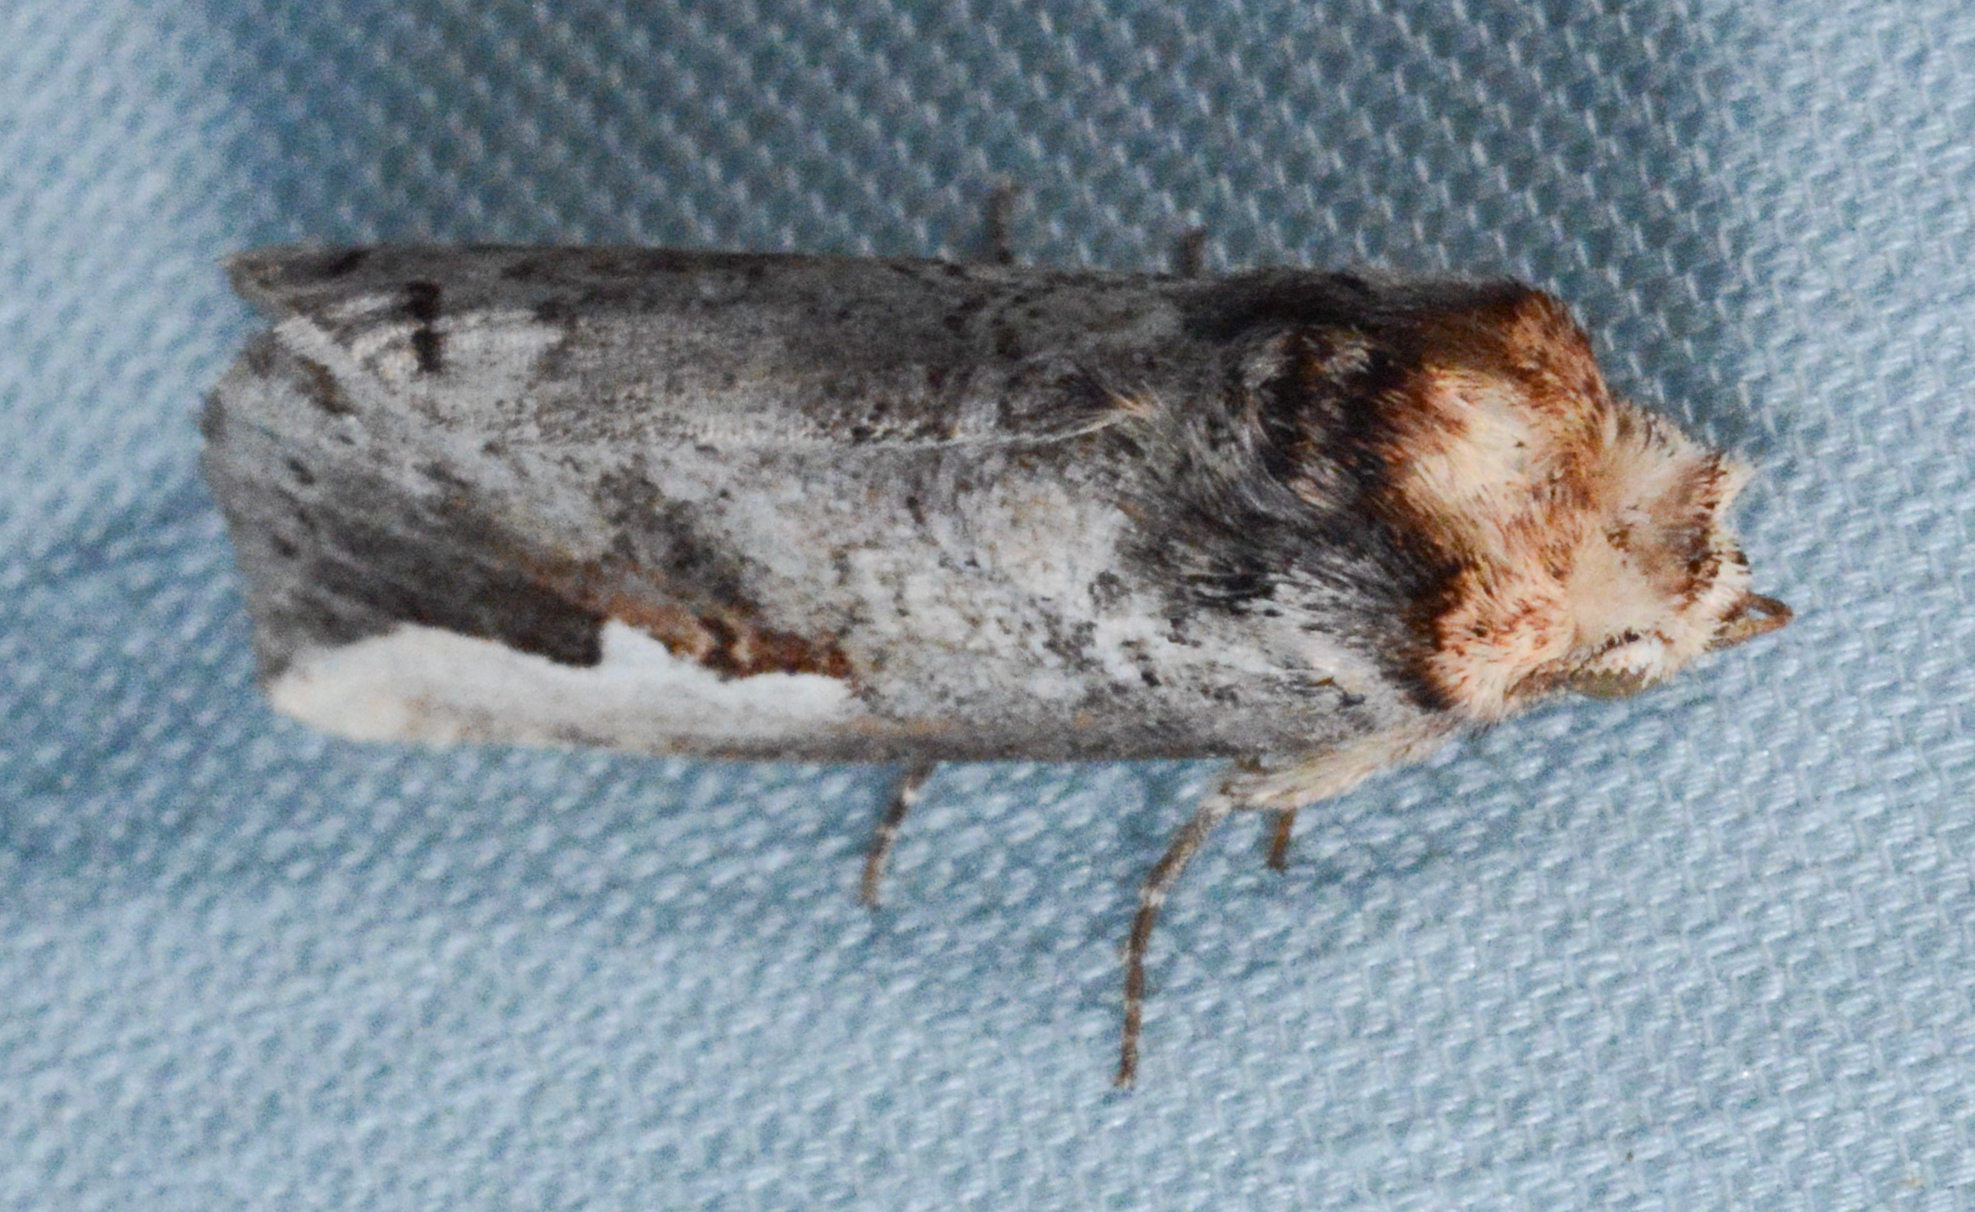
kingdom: Animalia
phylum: Arthropoda
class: Insecta
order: Lepidoptera
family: Notodontidae
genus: Symmerista
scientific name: Symmerista
